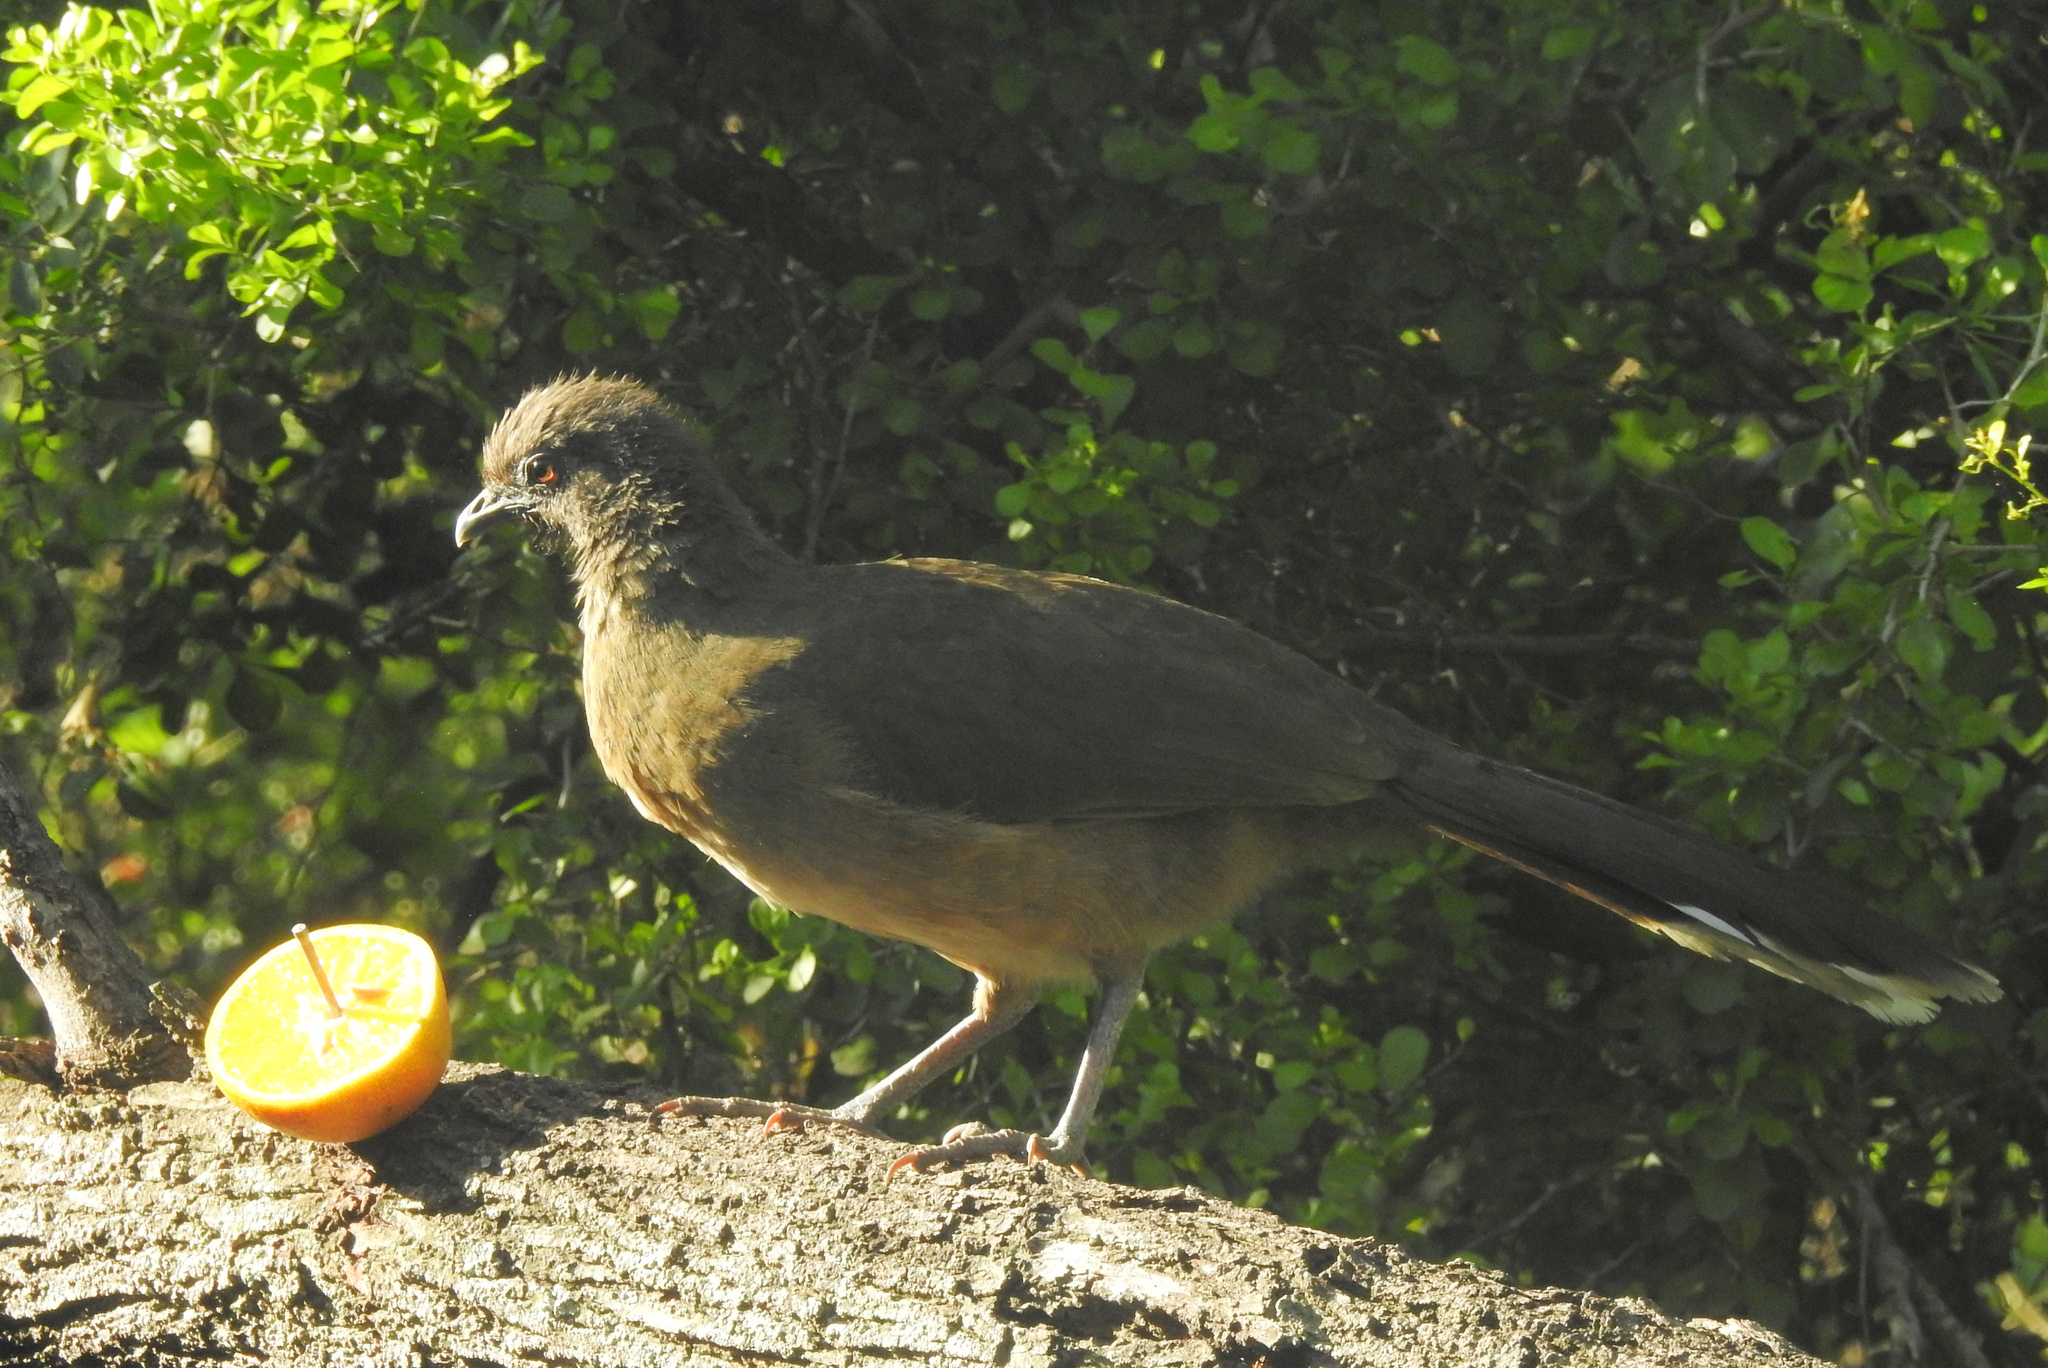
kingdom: Animalia
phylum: Chordata
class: Aves
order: Galliformes
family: Cracidae
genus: Ortalis
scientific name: Ortalis vetula
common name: Plain chachalaca
